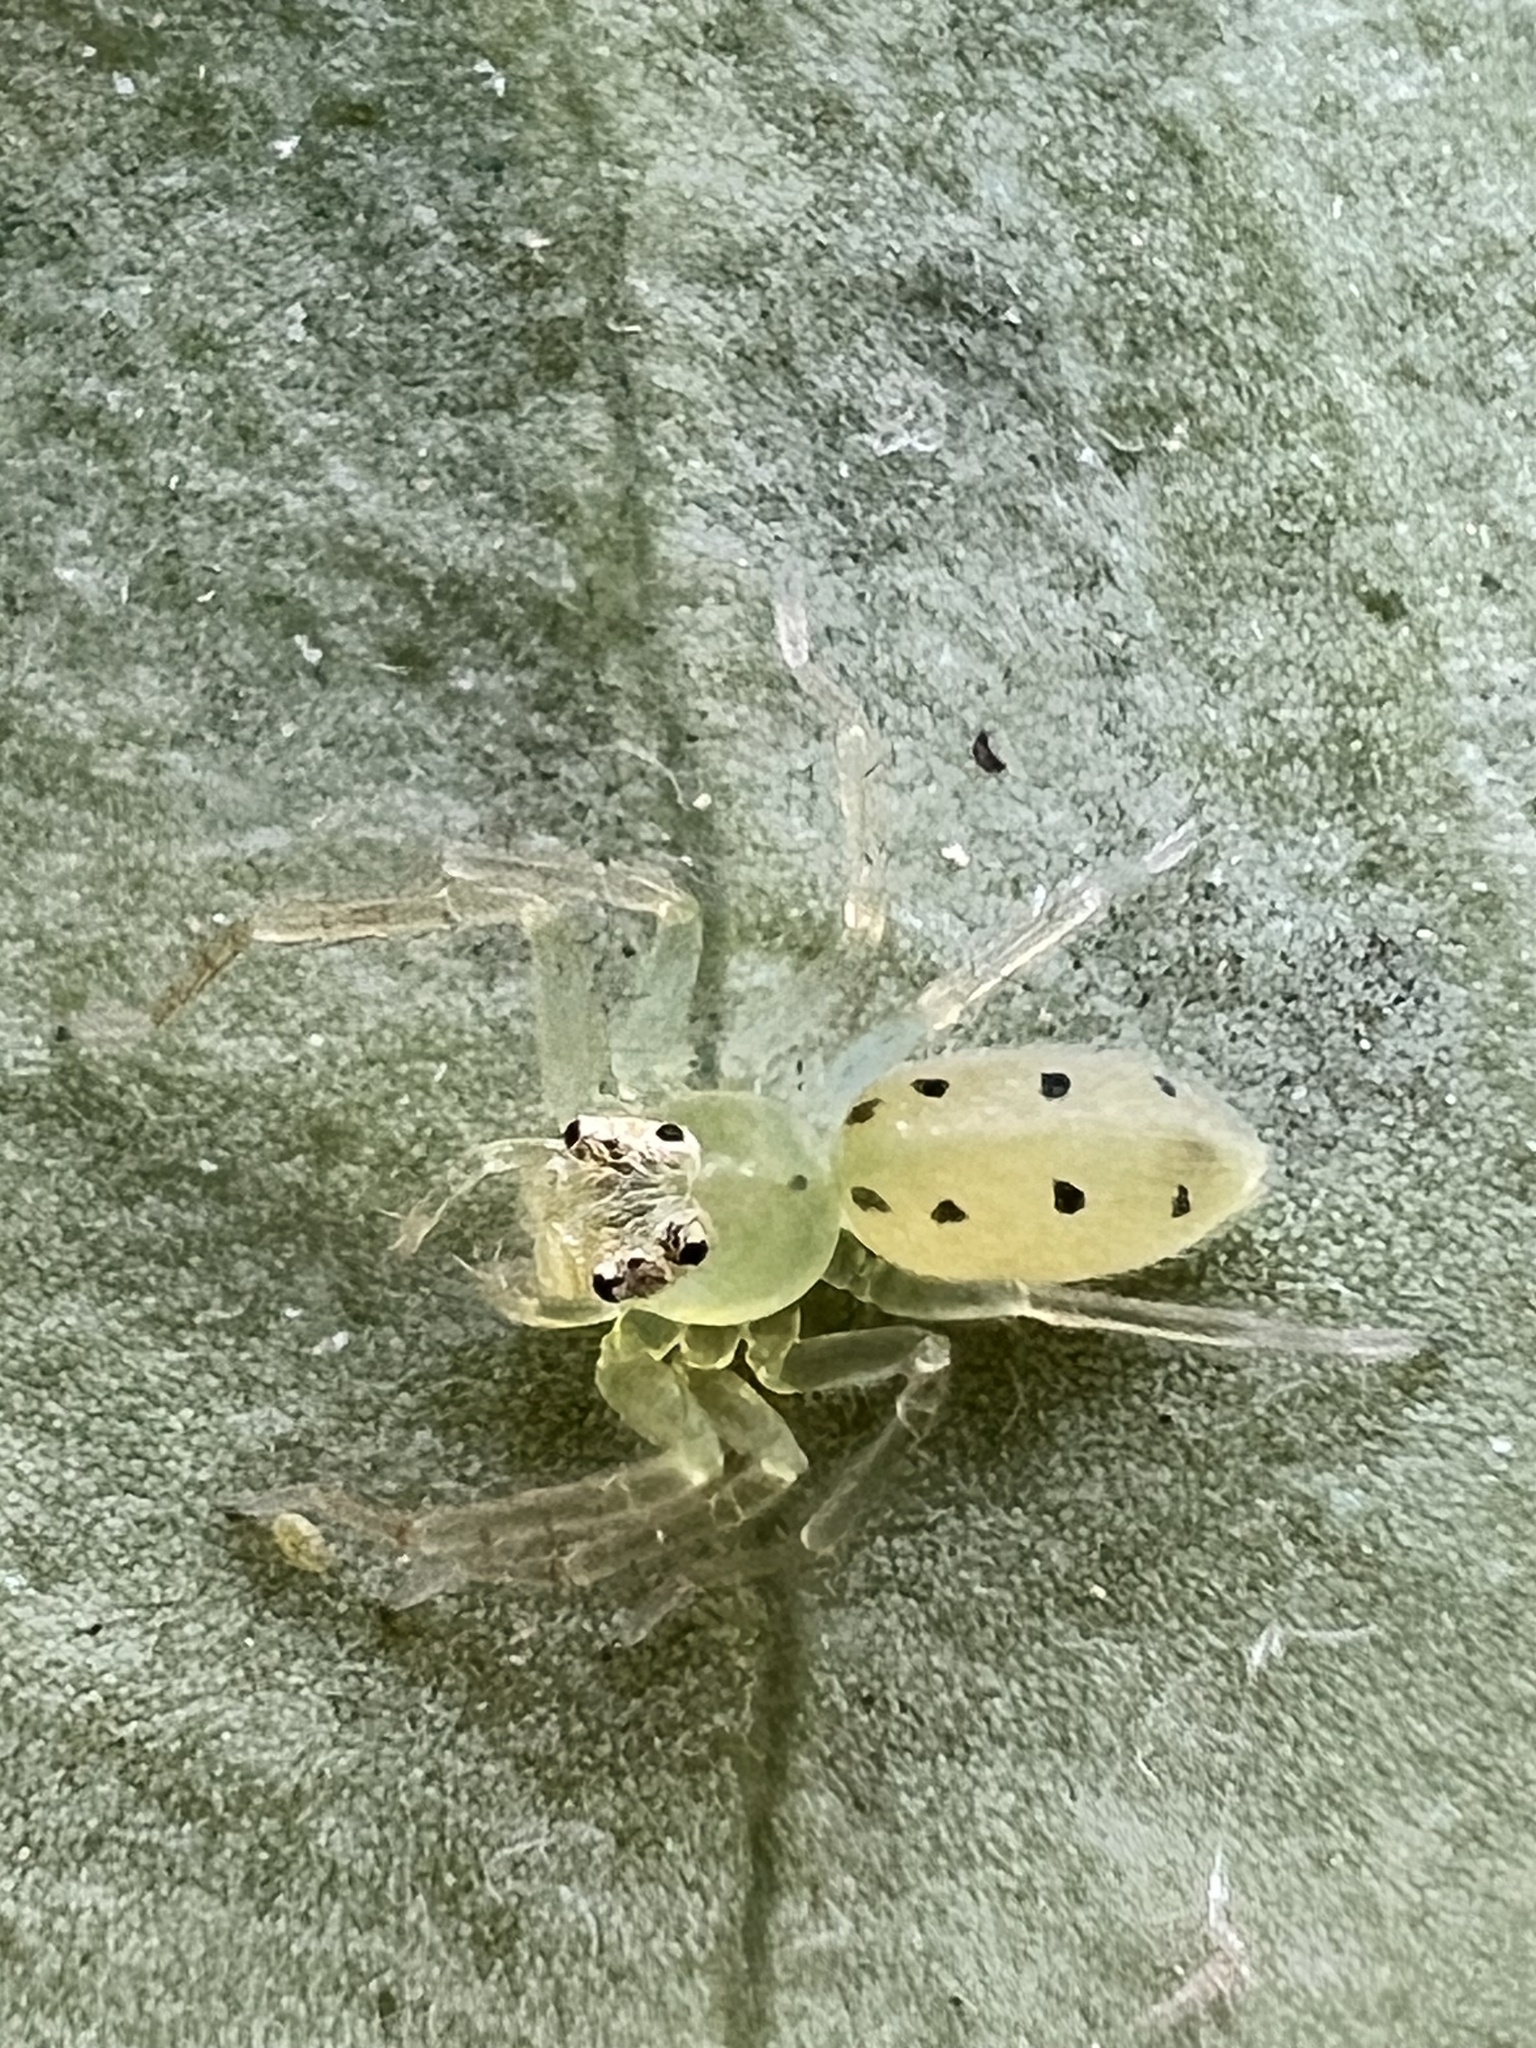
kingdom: Animalia
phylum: Arthropoda
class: Arachnida
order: Araneae
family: Salticidae
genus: Lyssomanes
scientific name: Lyssomanes viridis
